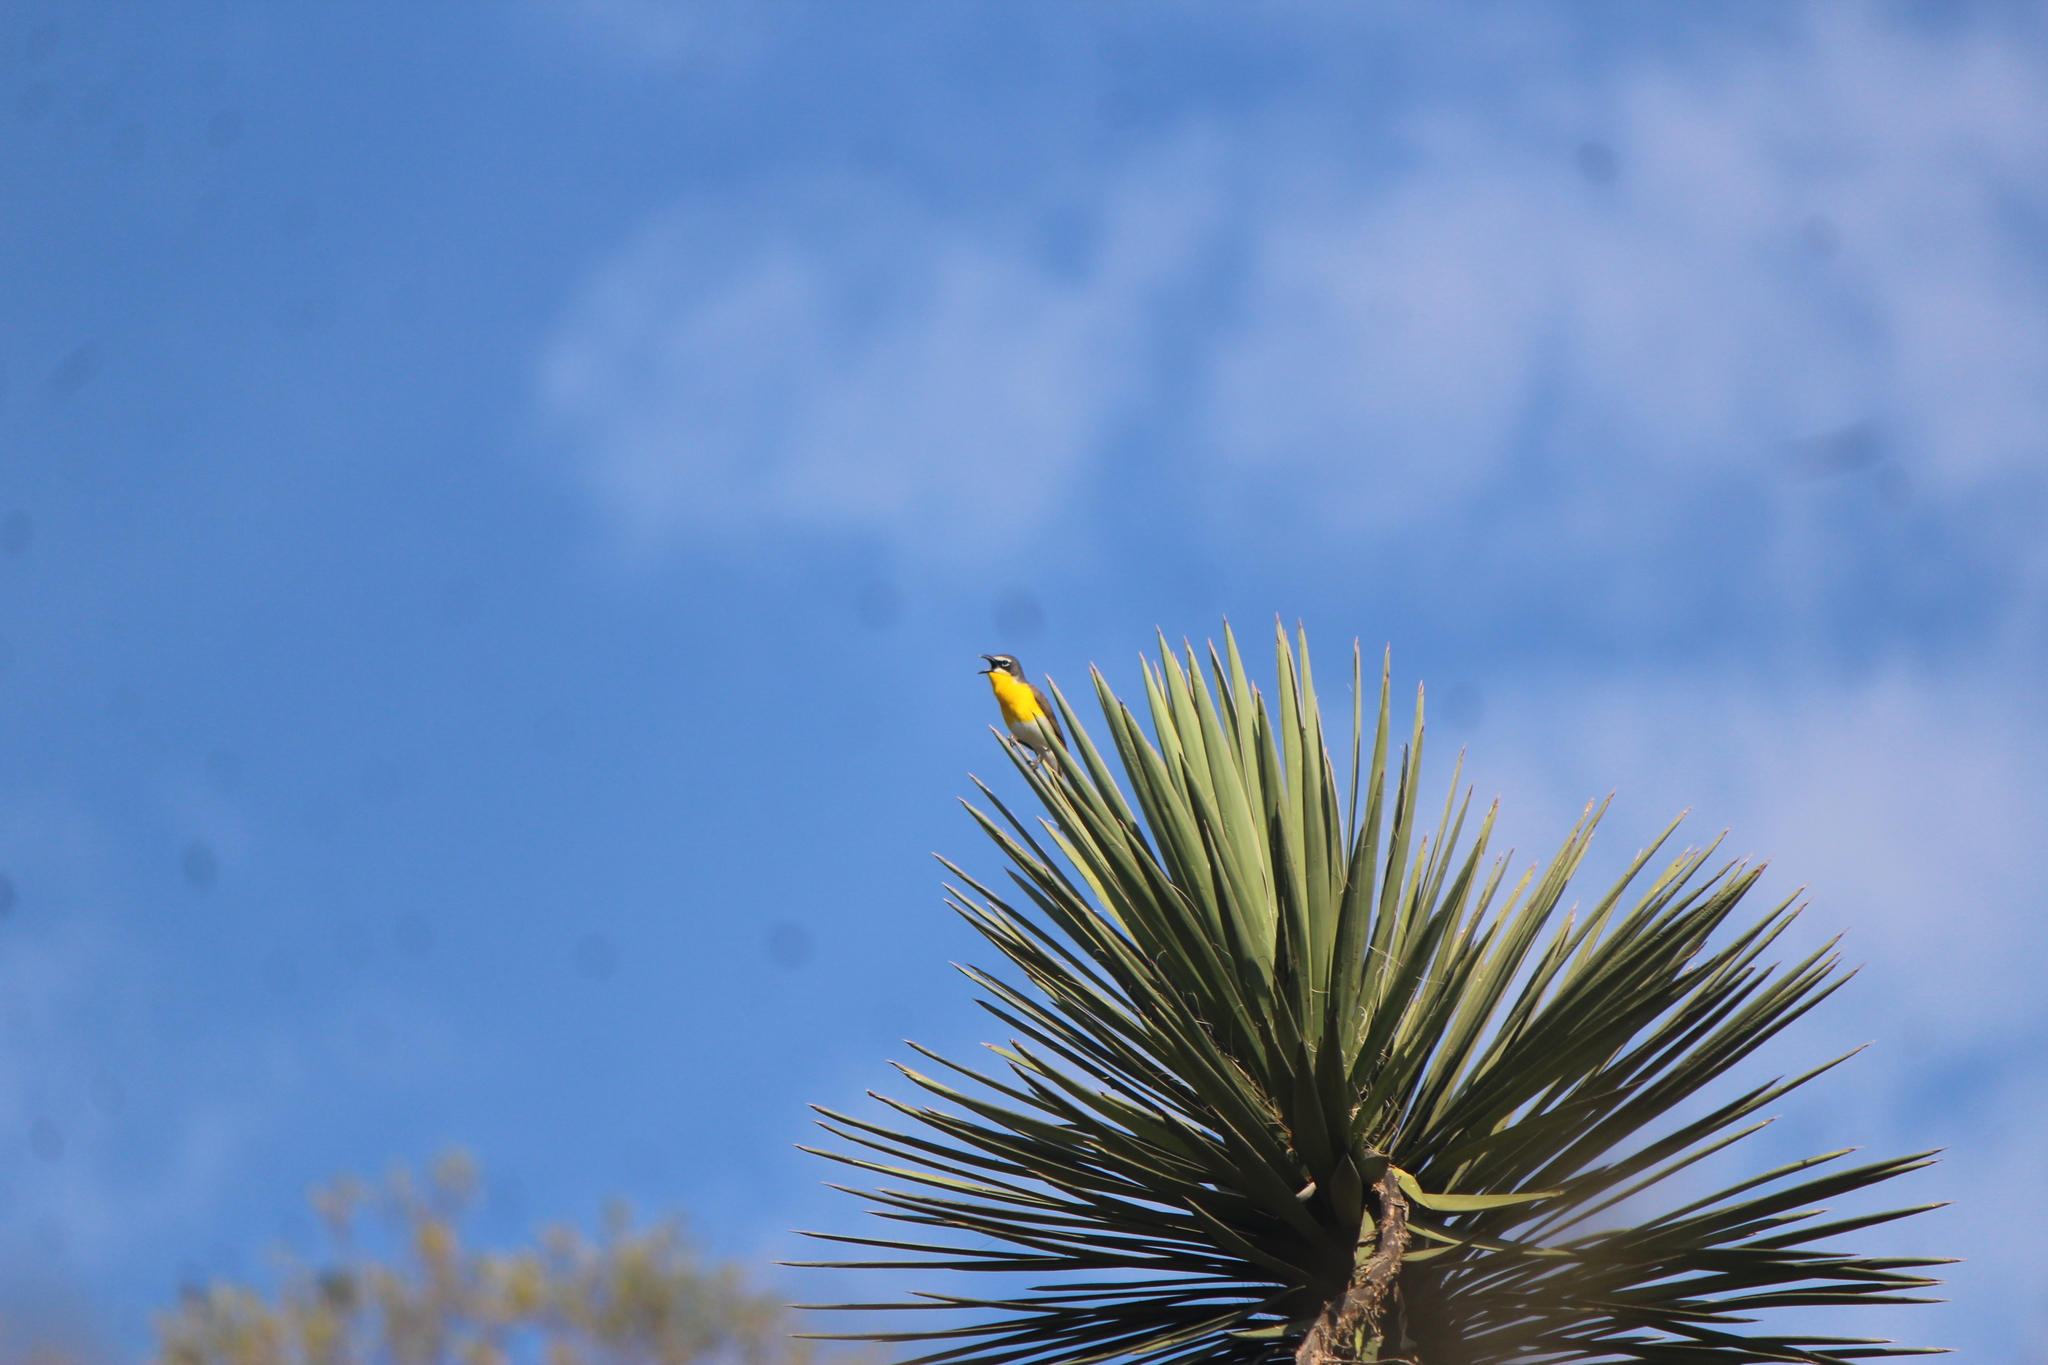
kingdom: Animalia
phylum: Chordata
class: Aves
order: Passeriformes
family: Parulidae
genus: Icteria
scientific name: Icteria virens
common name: Yellow-breasted chat
